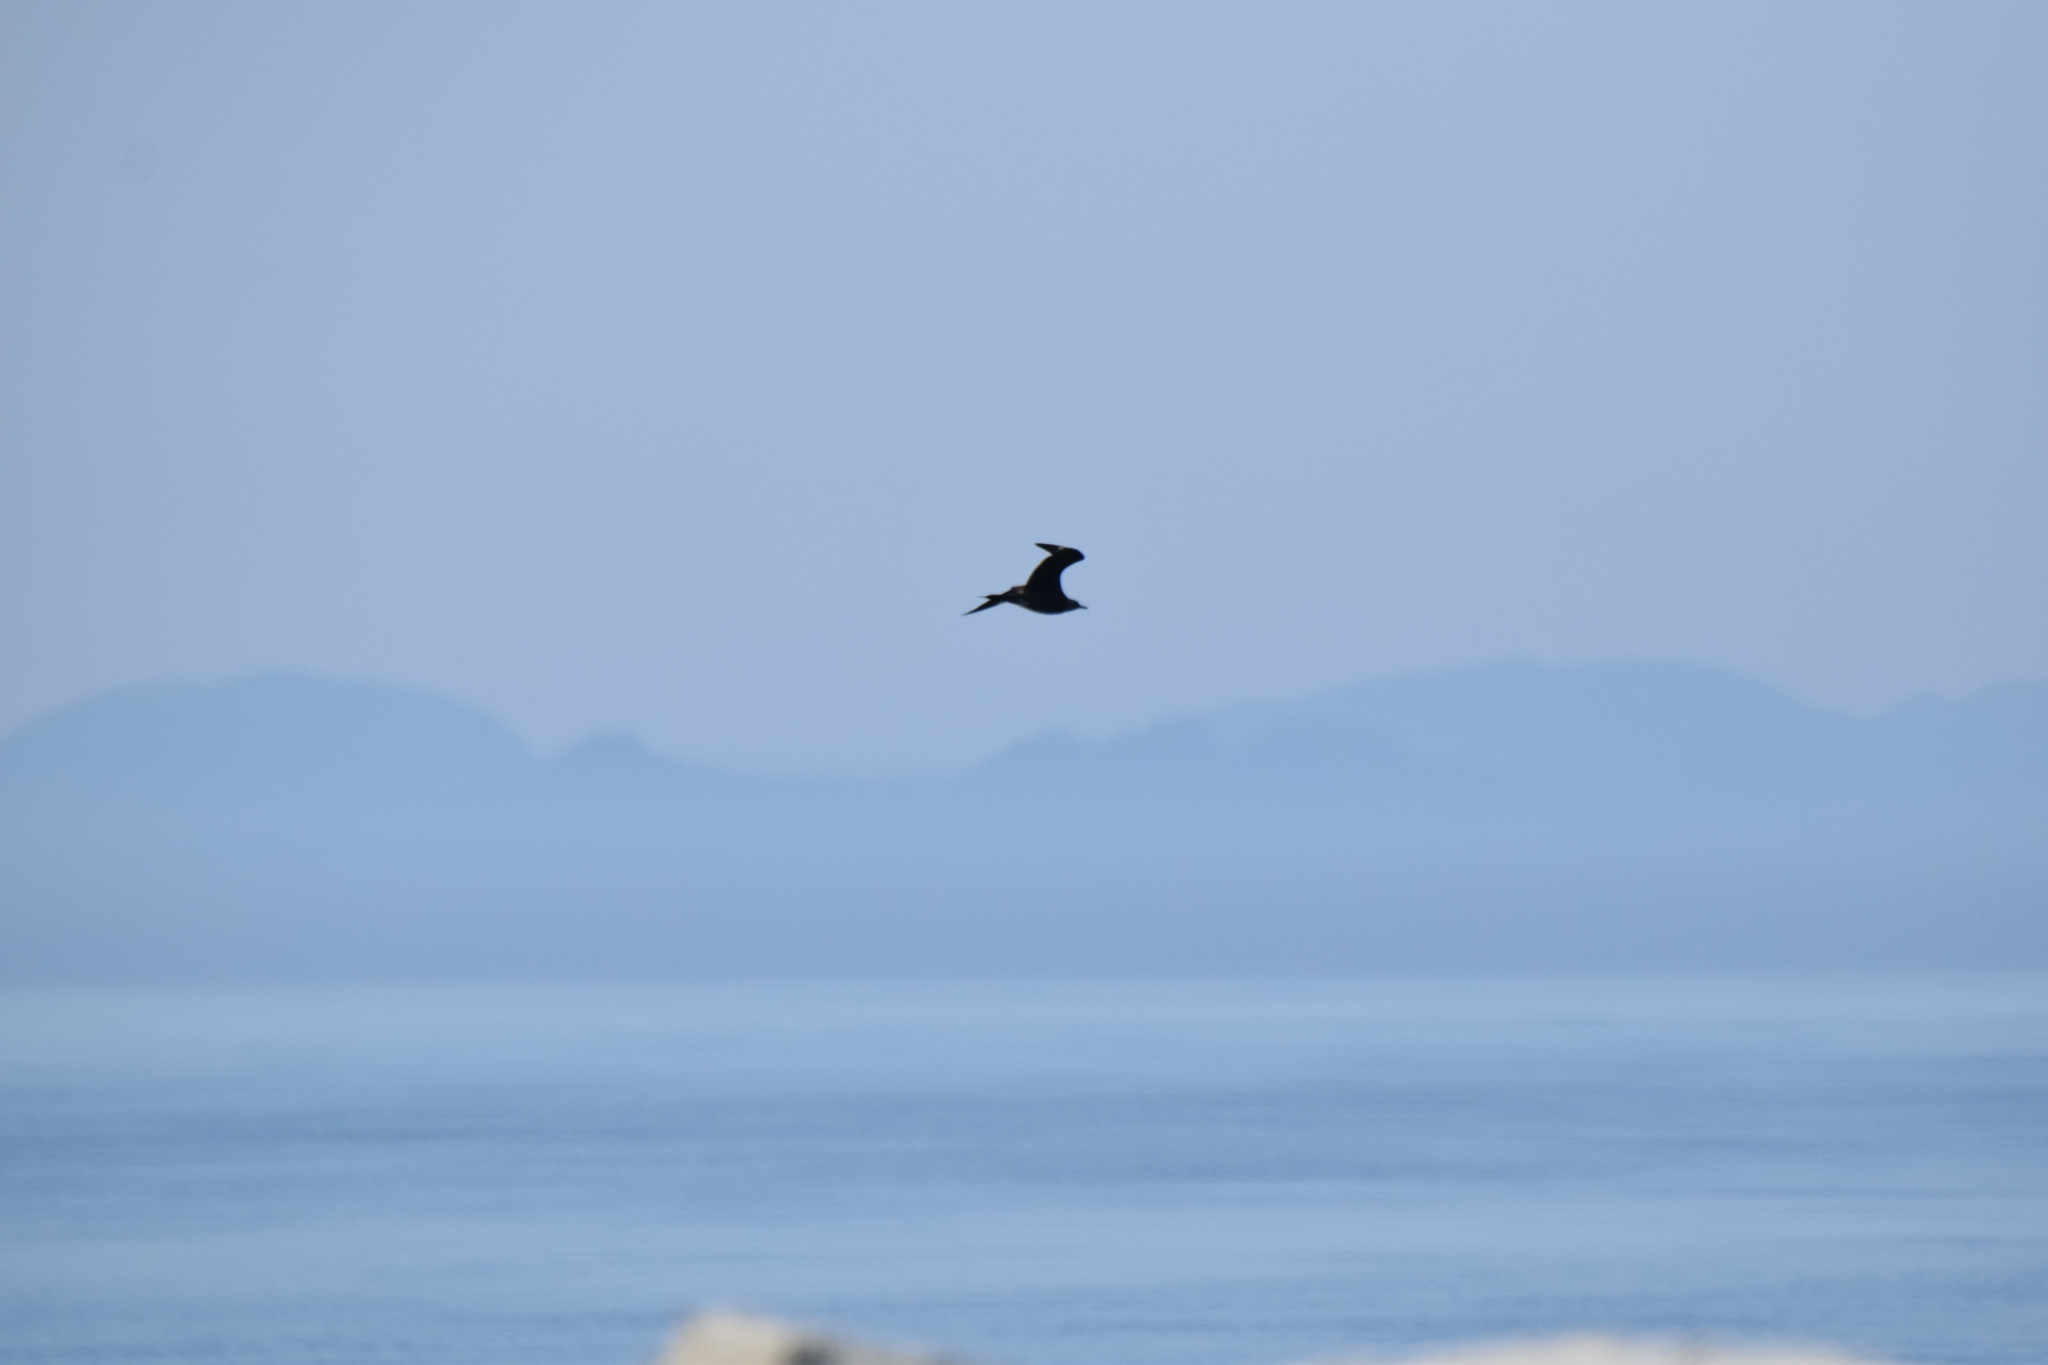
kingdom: Animalia
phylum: Chordata
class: Aves
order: Charadriiformes
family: Stercorariidae
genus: Stercorarius
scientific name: Stercorarius parasiticus
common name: Parasitic jaeger
